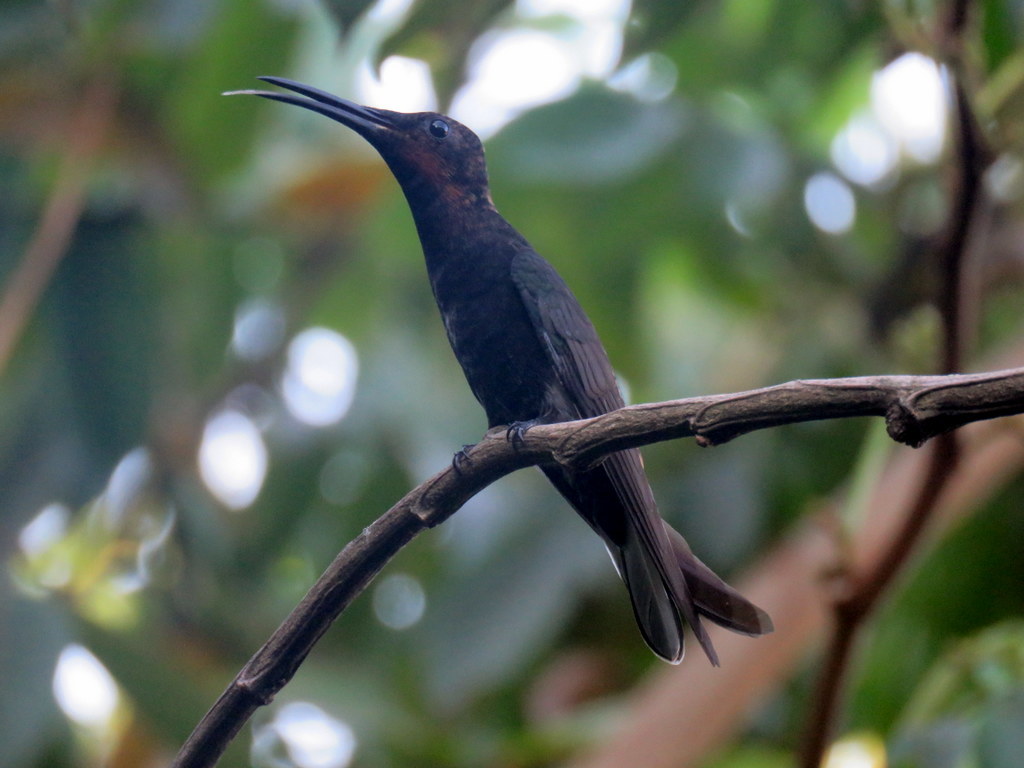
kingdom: Animalia
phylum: Chordata
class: Aves
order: Apodiformes
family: Trochilidae
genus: Florisuga
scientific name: Florisuga fusca
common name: Black jacobin
